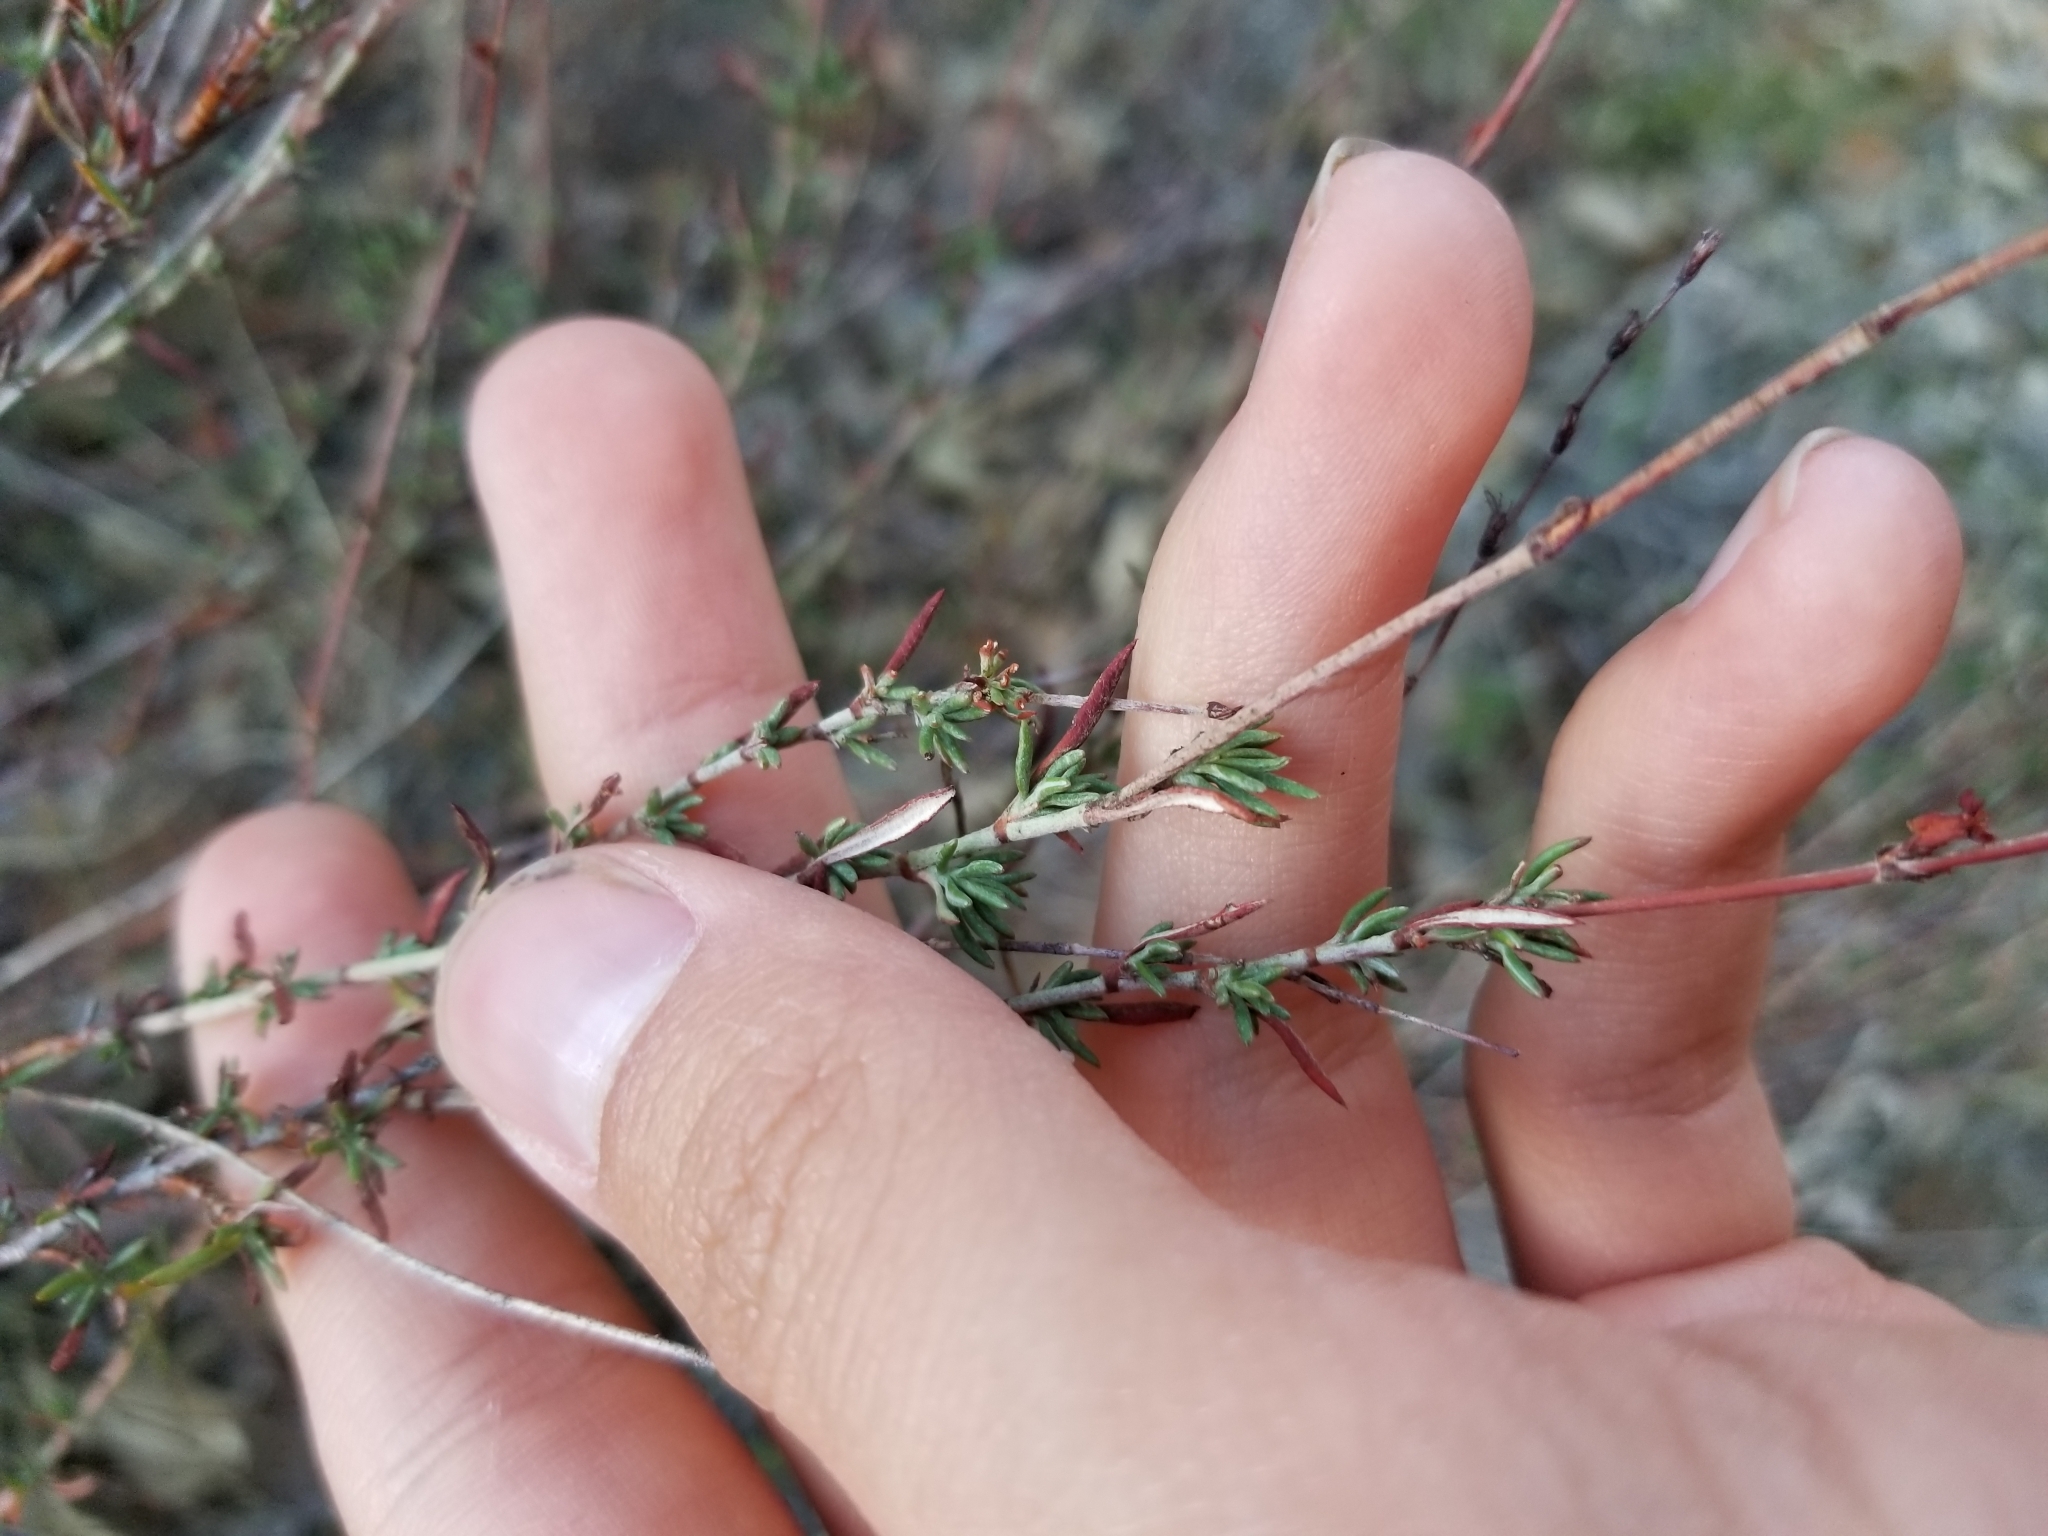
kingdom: Plantae
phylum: Tracheophyta
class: Magnoliopsida
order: Caryophyllales
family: Polygonaceae
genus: Eriogonum
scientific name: Eriogonum wrightii
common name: Bastard-sage
